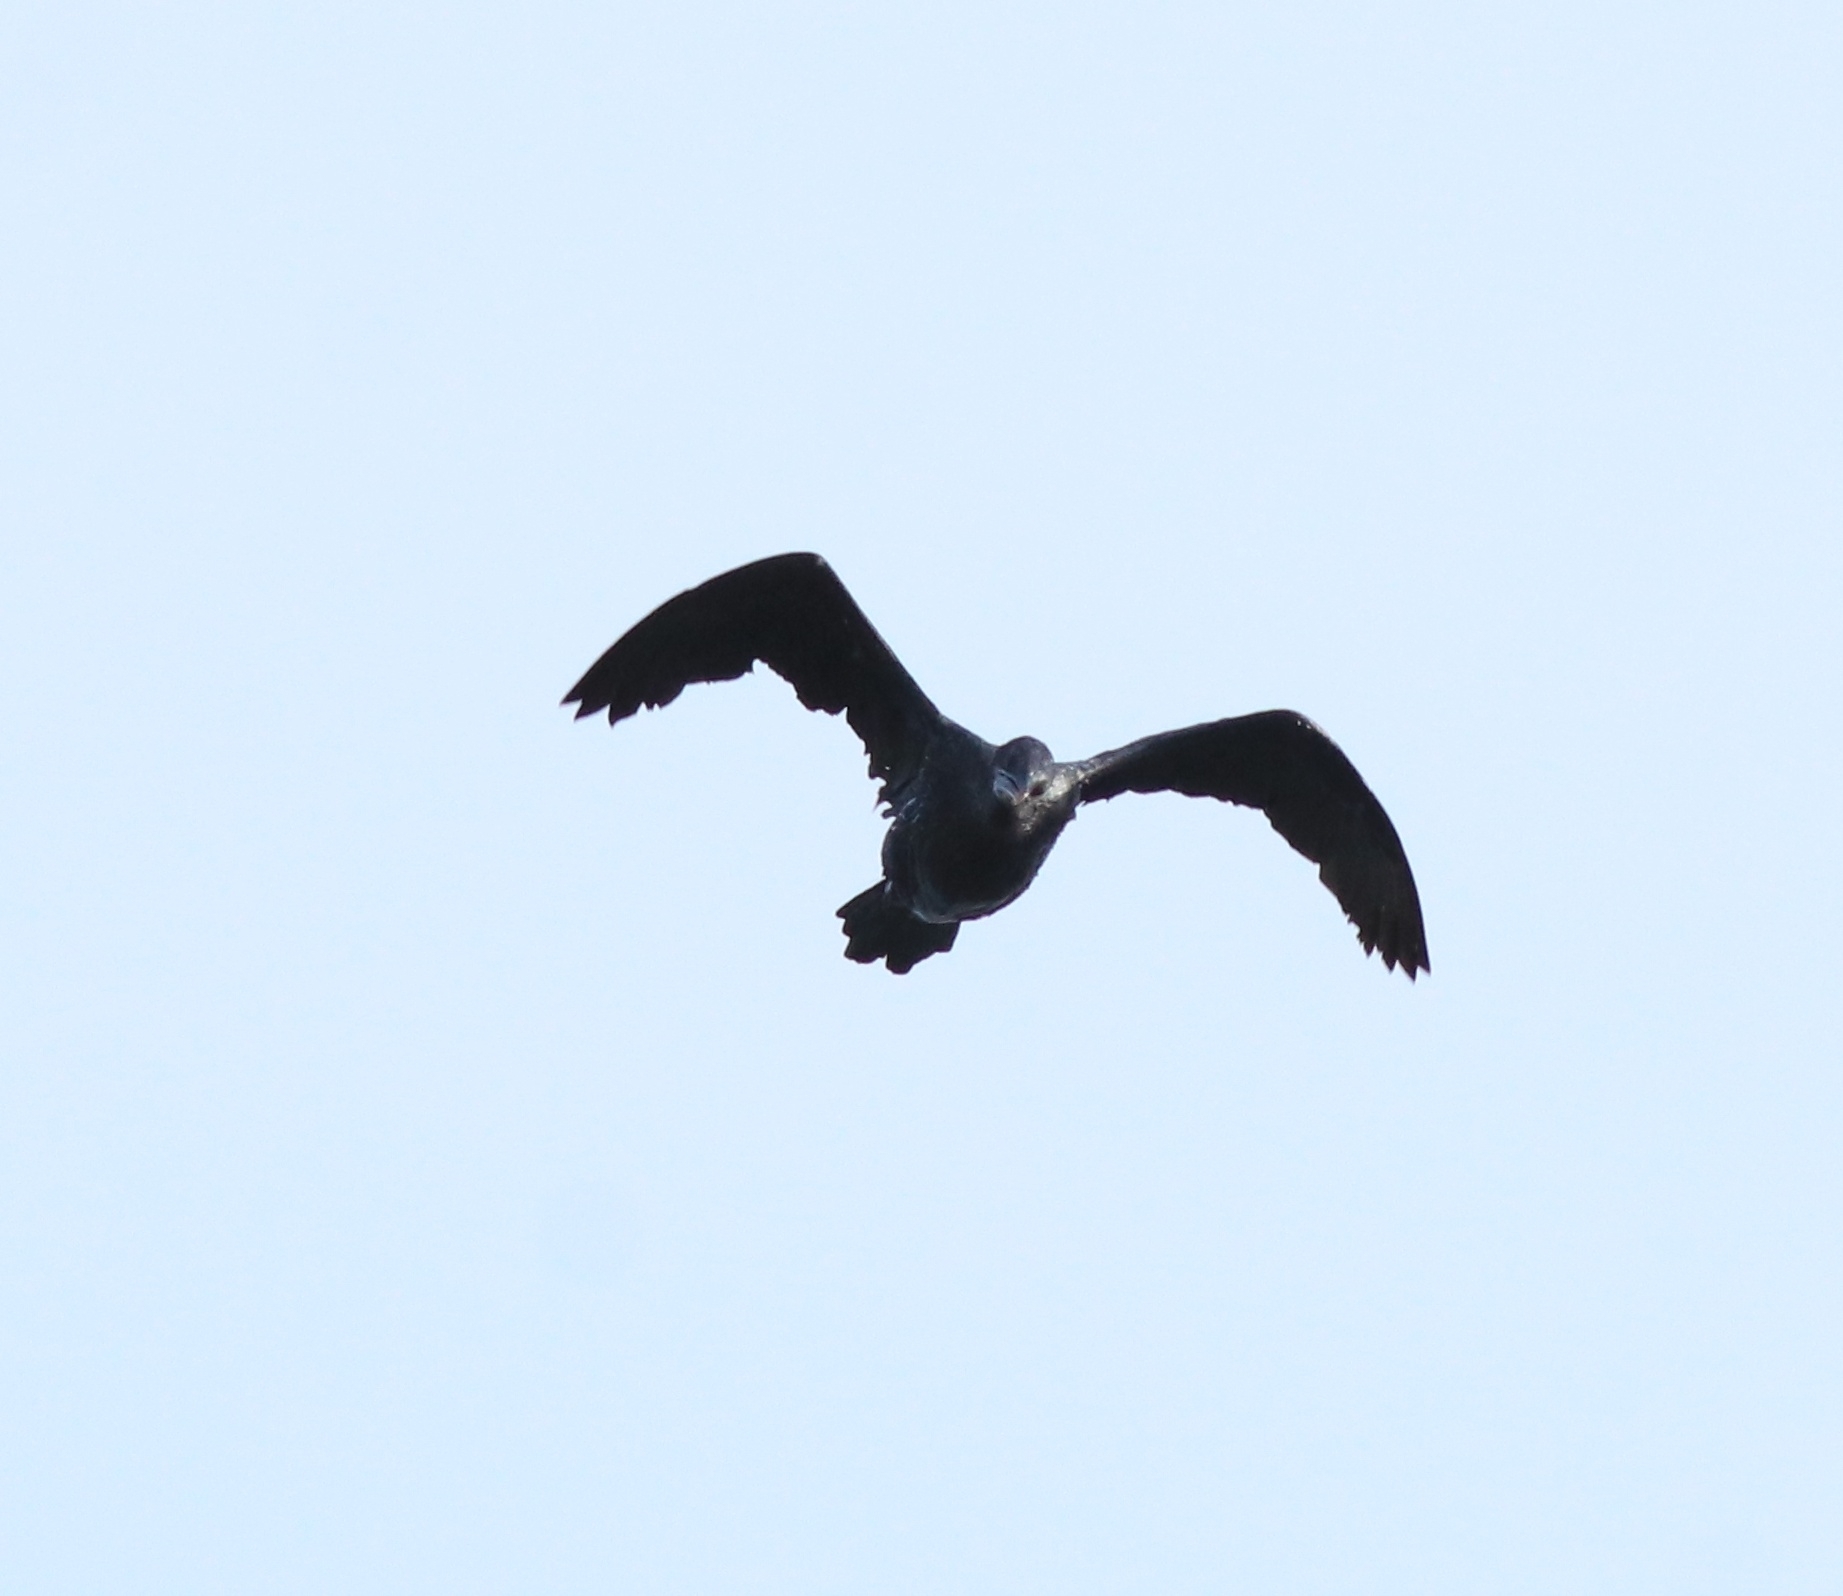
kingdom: Animalia
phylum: Chordata
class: Aves
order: Suliformes
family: Phalacrocoracidae
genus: Microcarbo
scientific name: Microcarbo niger
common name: Little cormorant
